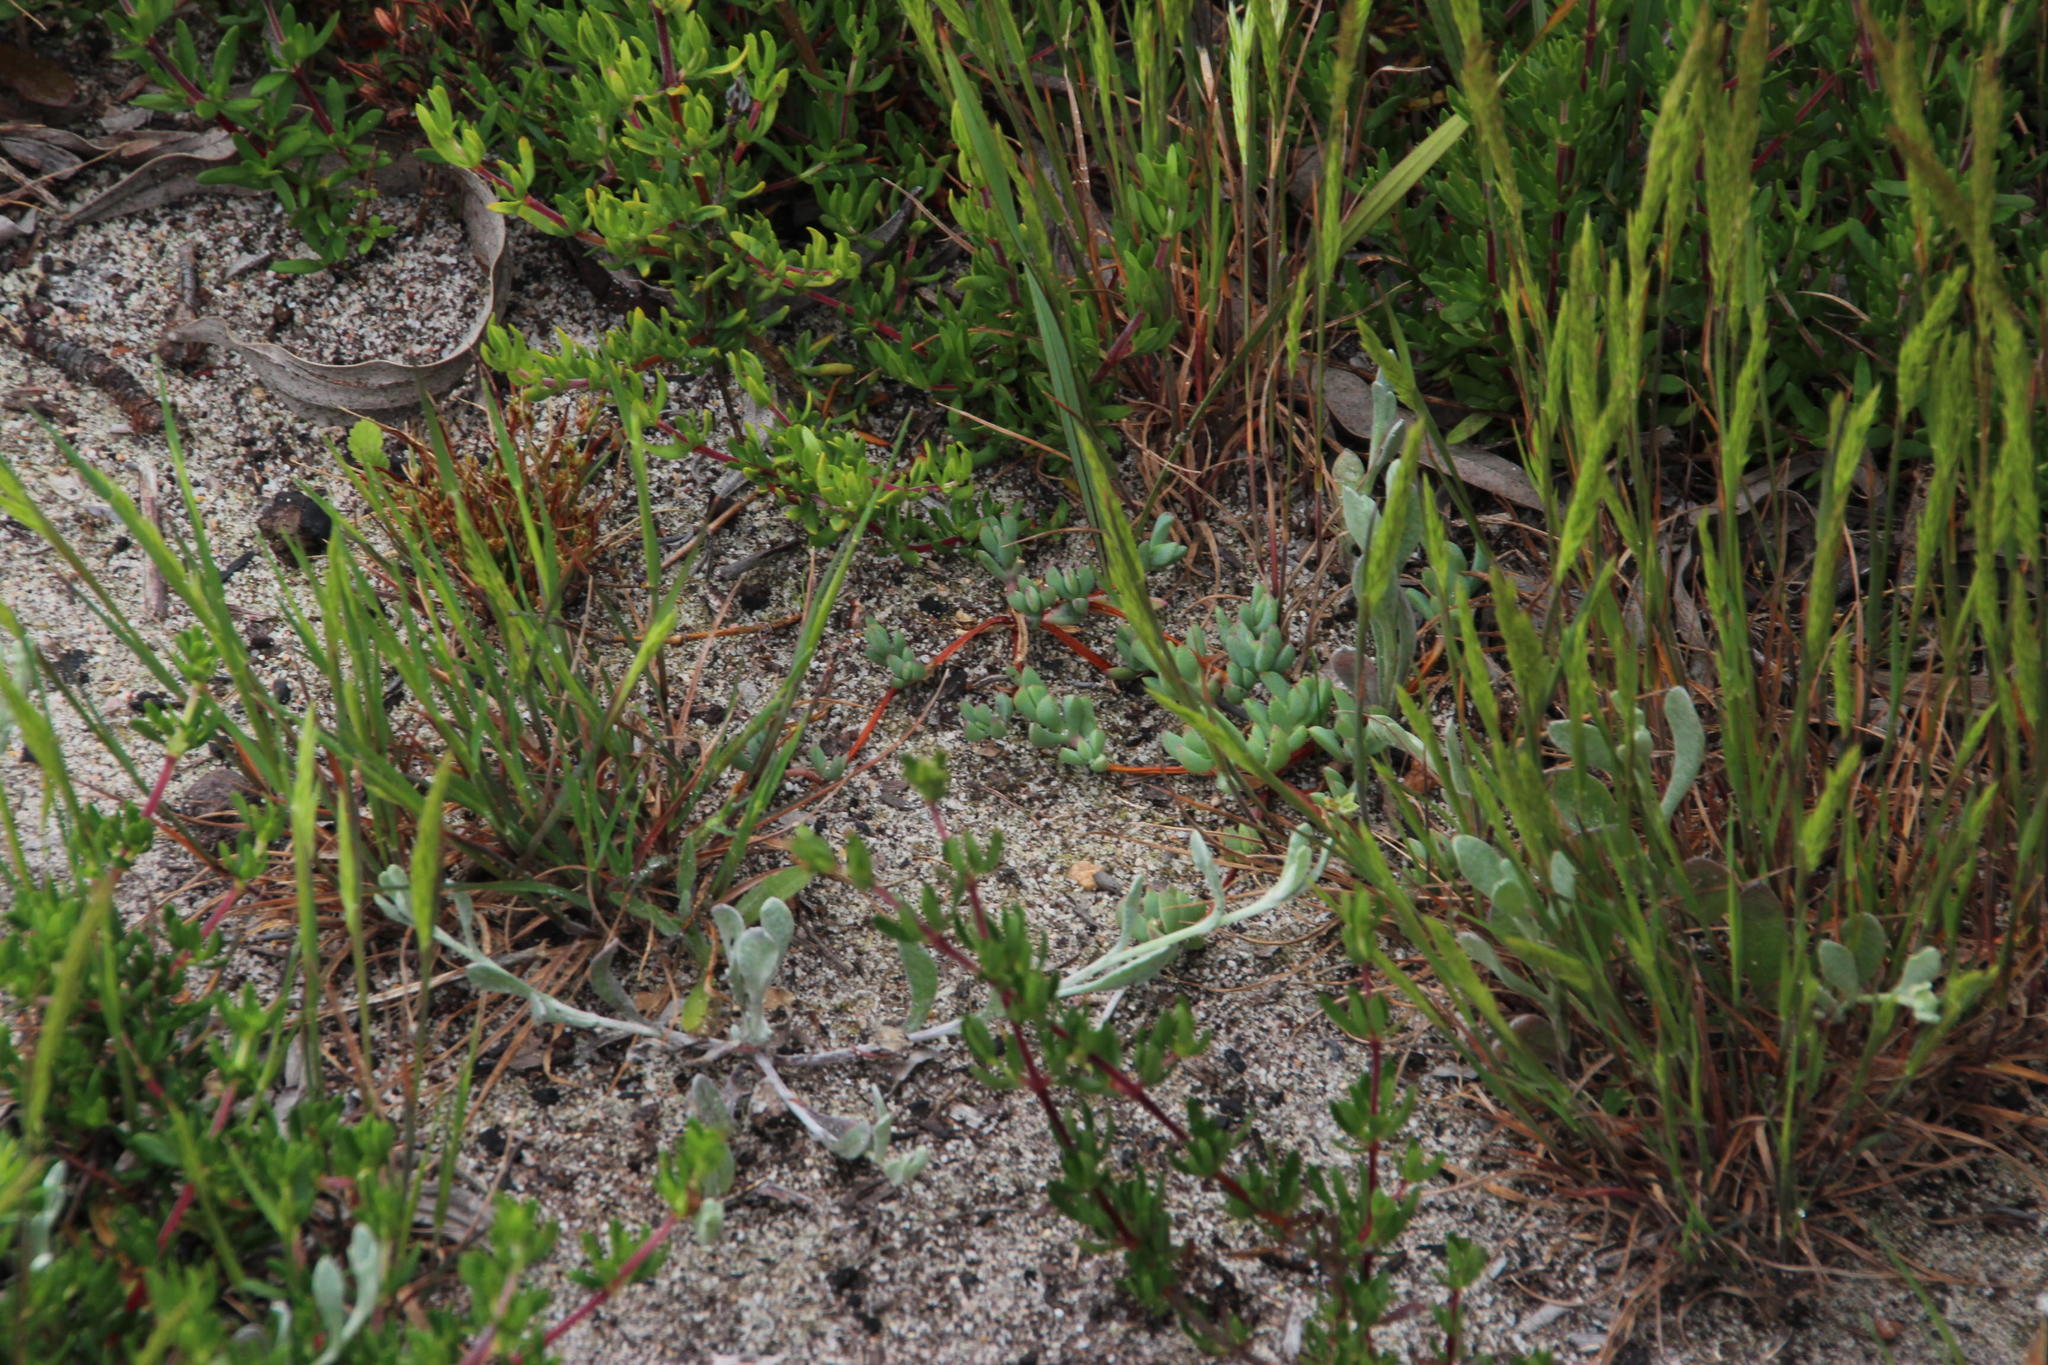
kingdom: Plantae
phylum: Tracheophyta
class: Magnoliopsida
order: Caryophyllales
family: Aizoaceae
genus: Lampranthus
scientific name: Lampranthus reptans
